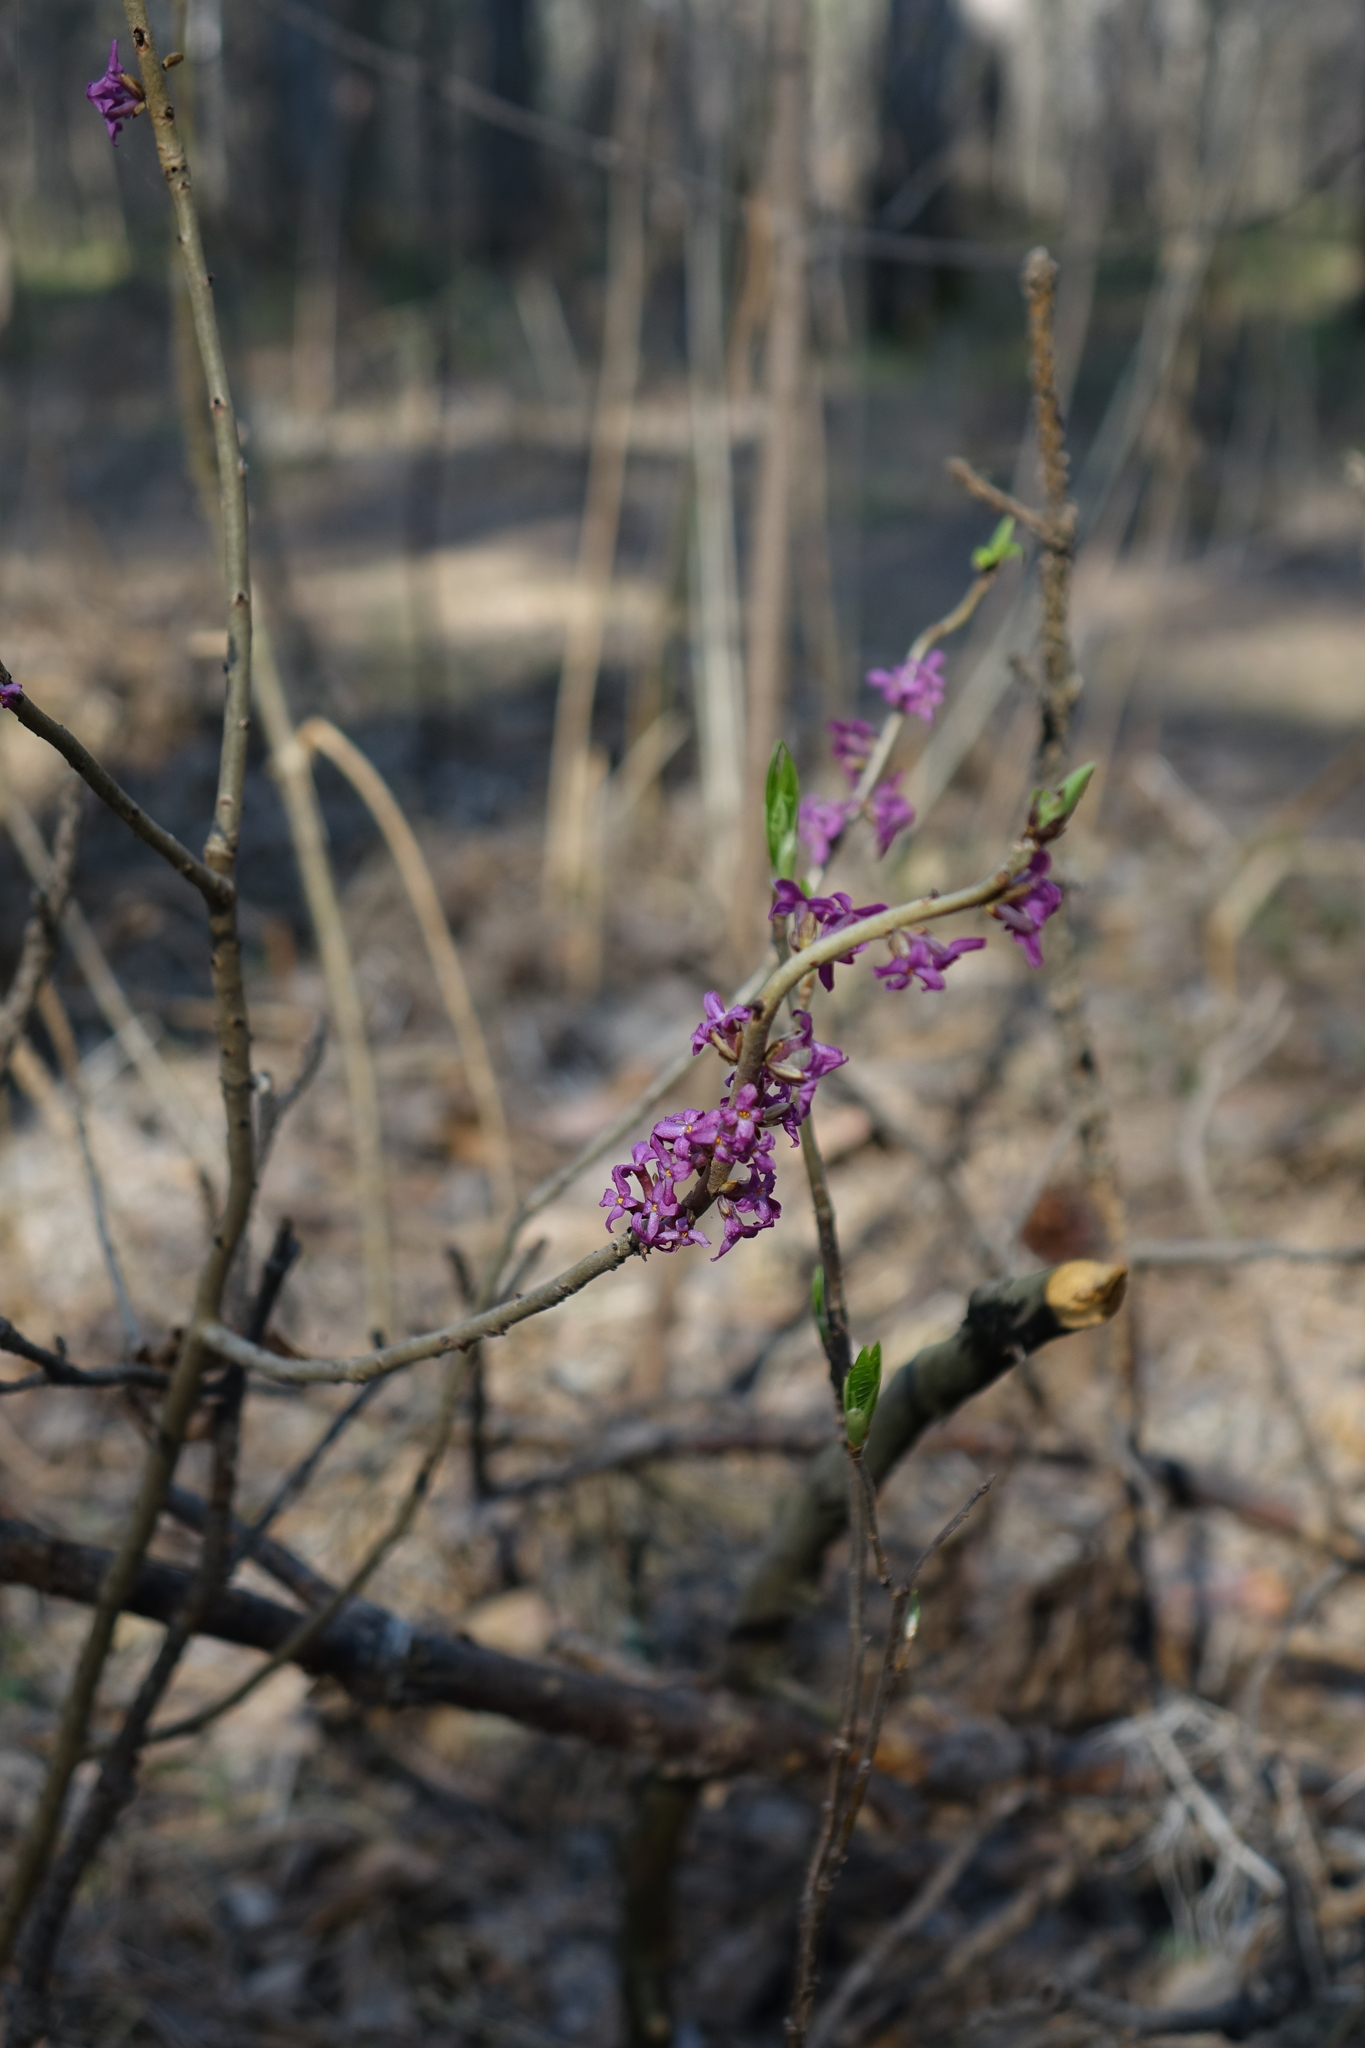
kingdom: Plantae
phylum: Tracheophyta
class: Magnoliopsida
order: Malvales
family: Thymelaeaceae
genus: Daphne
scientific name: Daphne mezereum
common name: Mezereon
